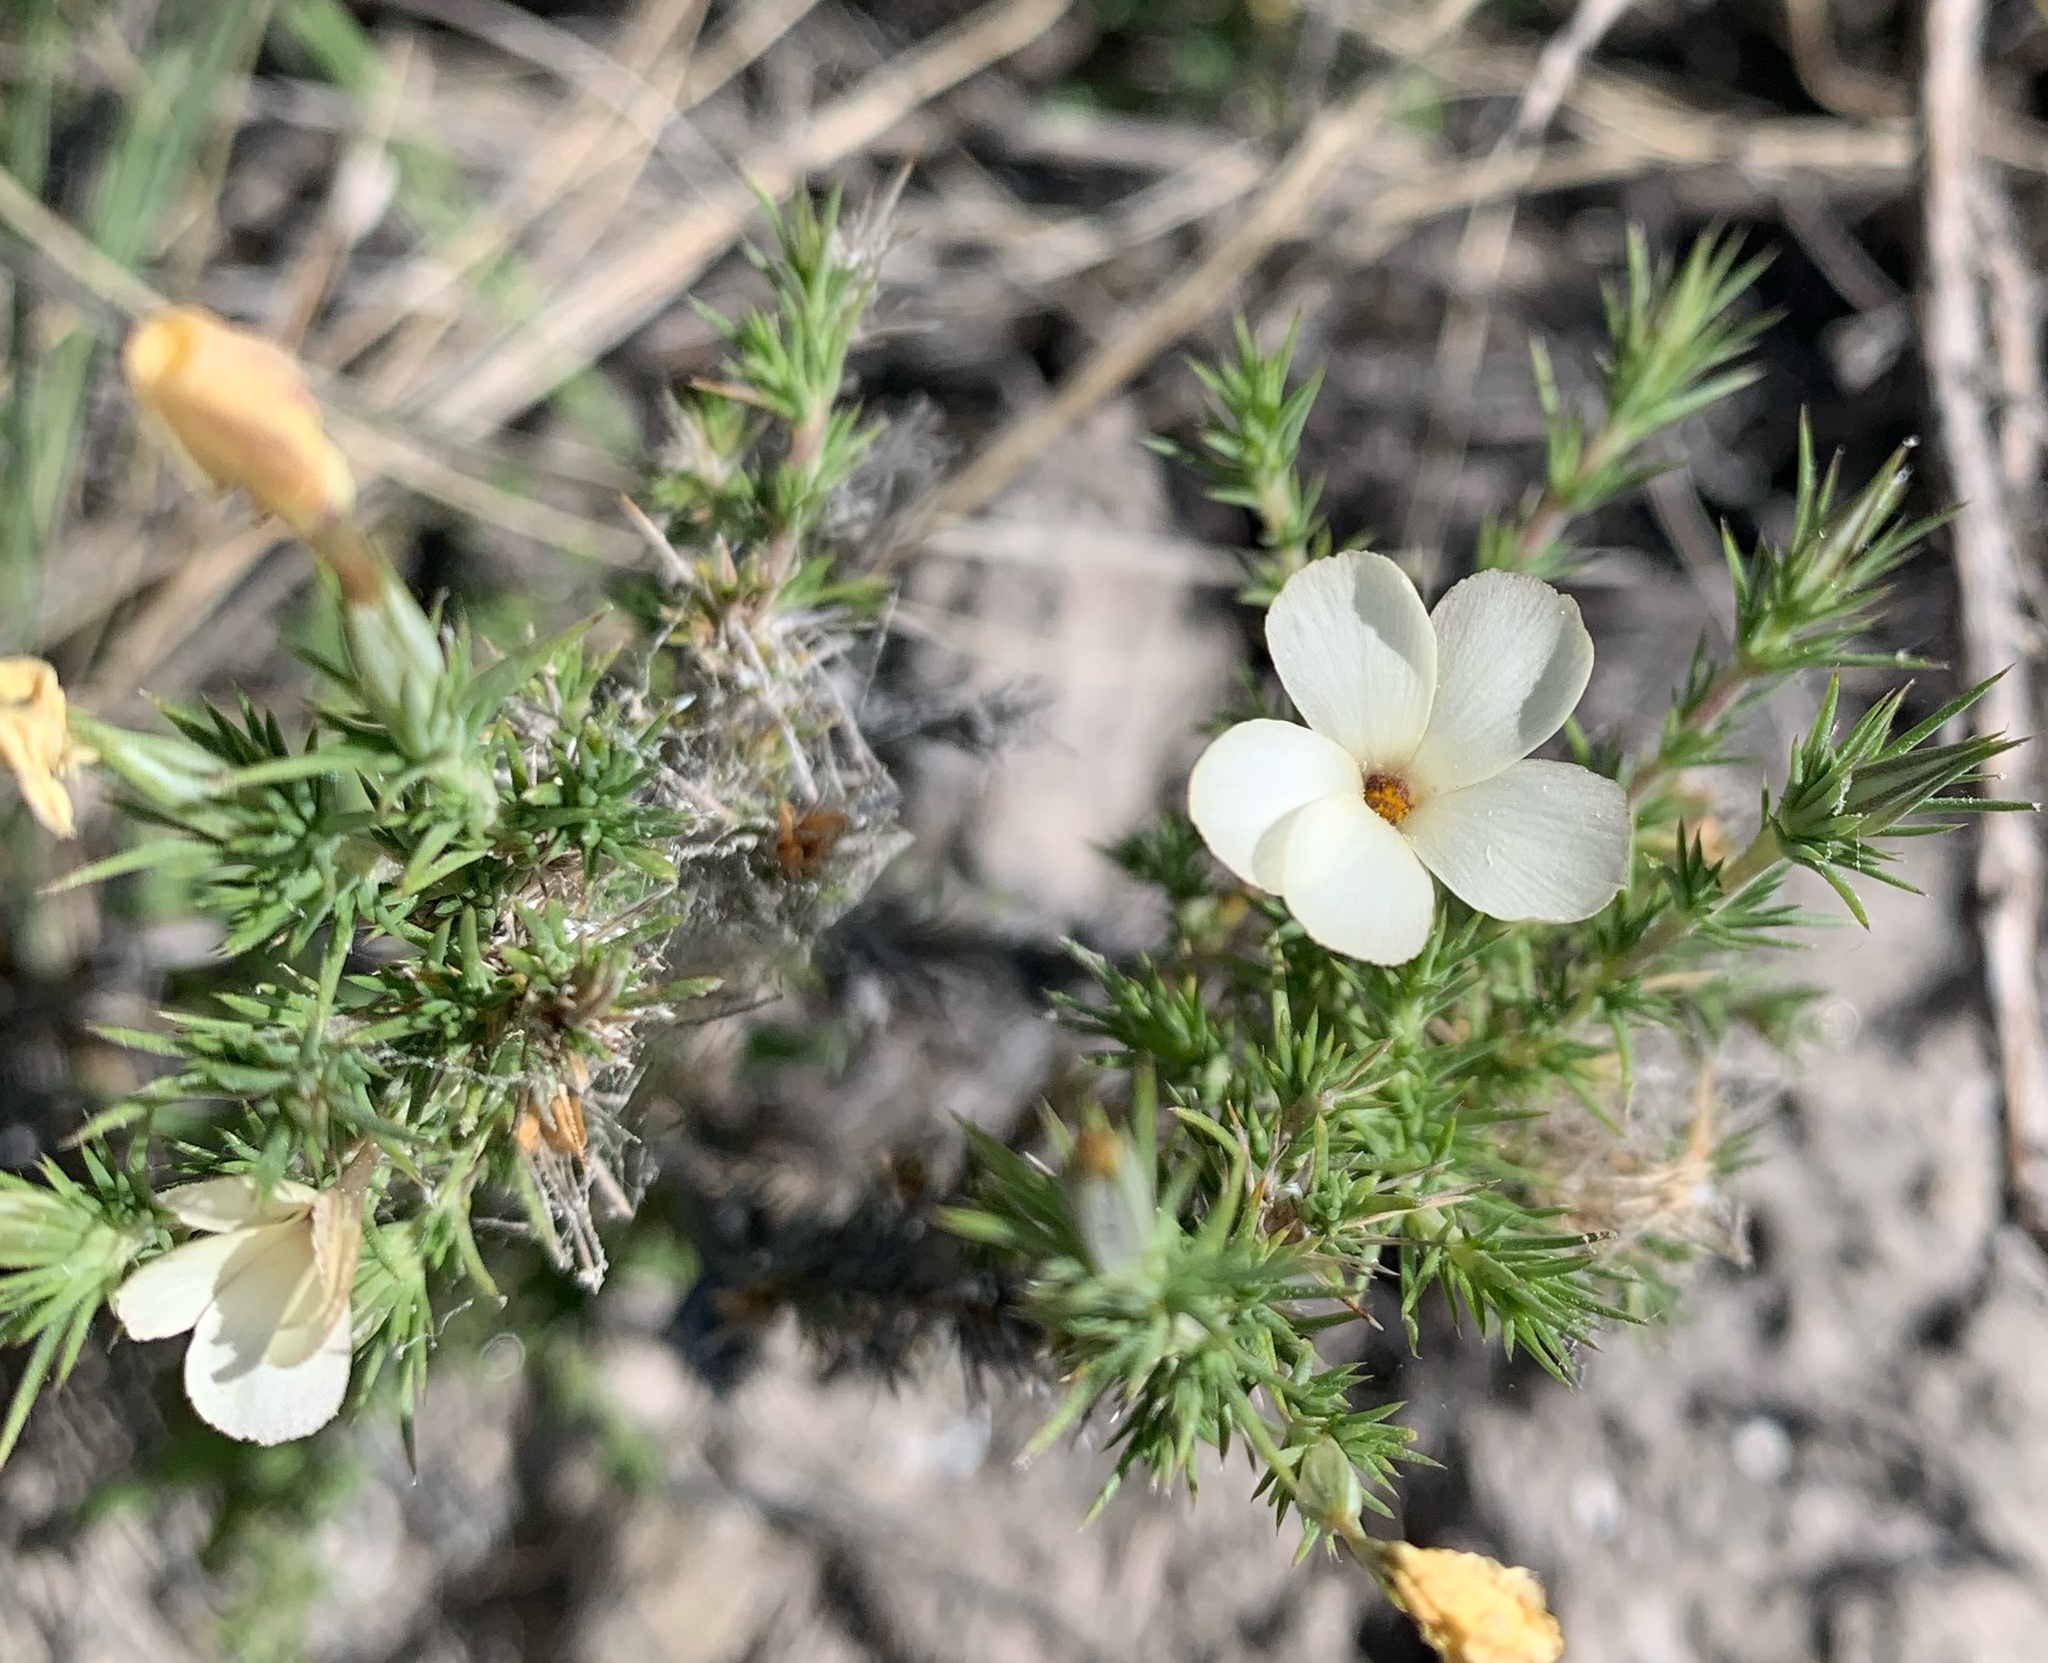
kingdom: Plantae
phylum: Tracheophyta
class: Magnoliopsida
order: Ericales
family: Polemoniaceae
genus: Linanthus
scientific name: Linanthus pungens
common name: Granite prickly phlox
